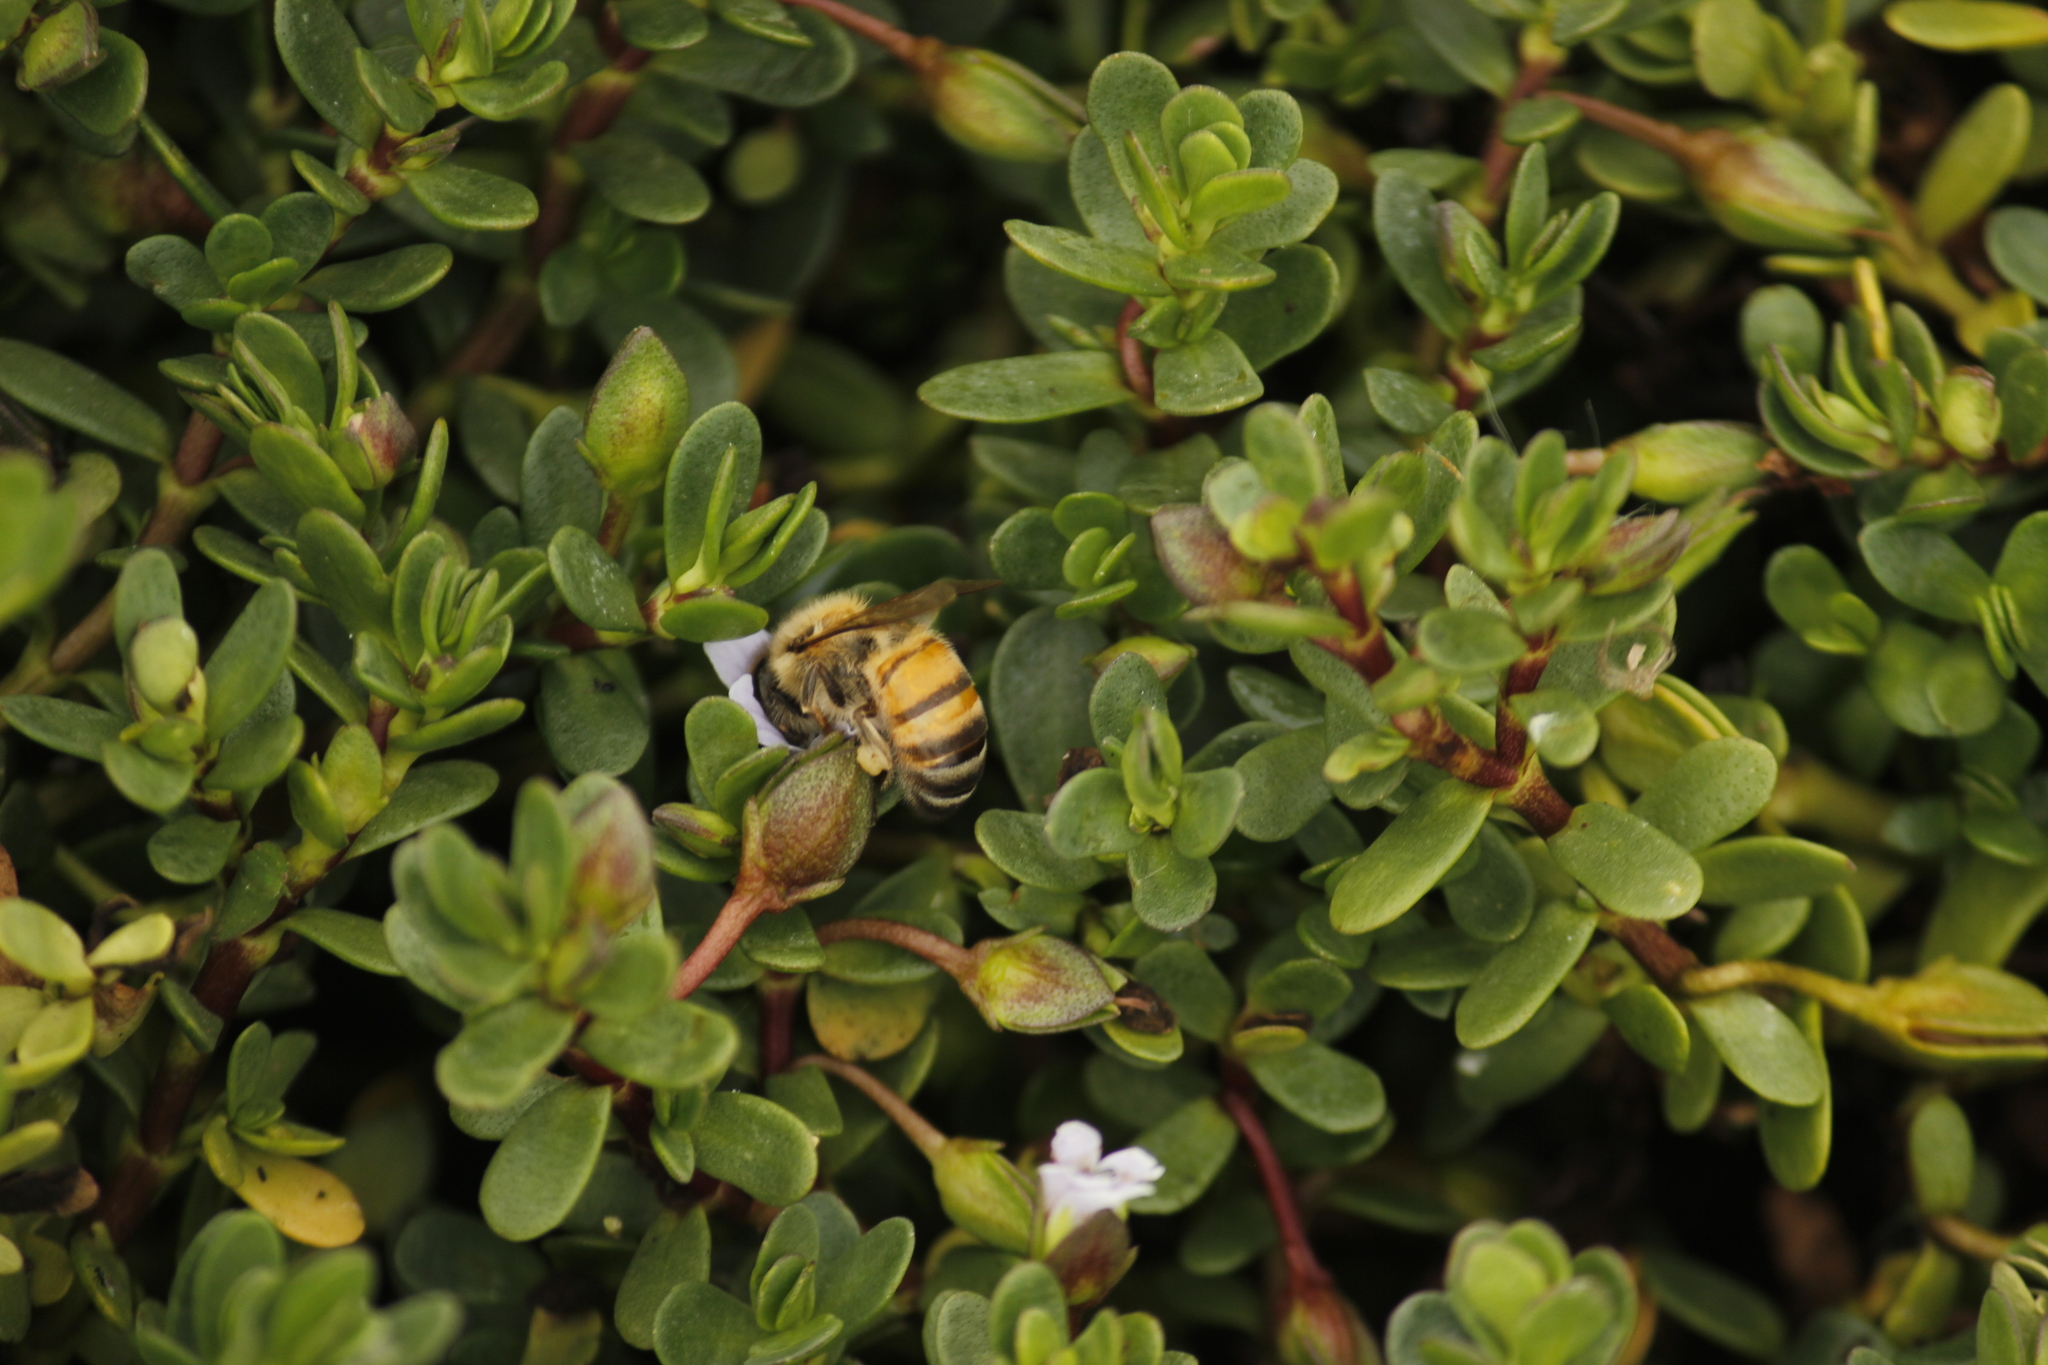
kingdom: Animalia
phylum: Arthropoda
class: Insecta
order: Hymenoptera
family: Apidae
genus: Apis
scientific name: Apis mellifera
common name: Honey bee
